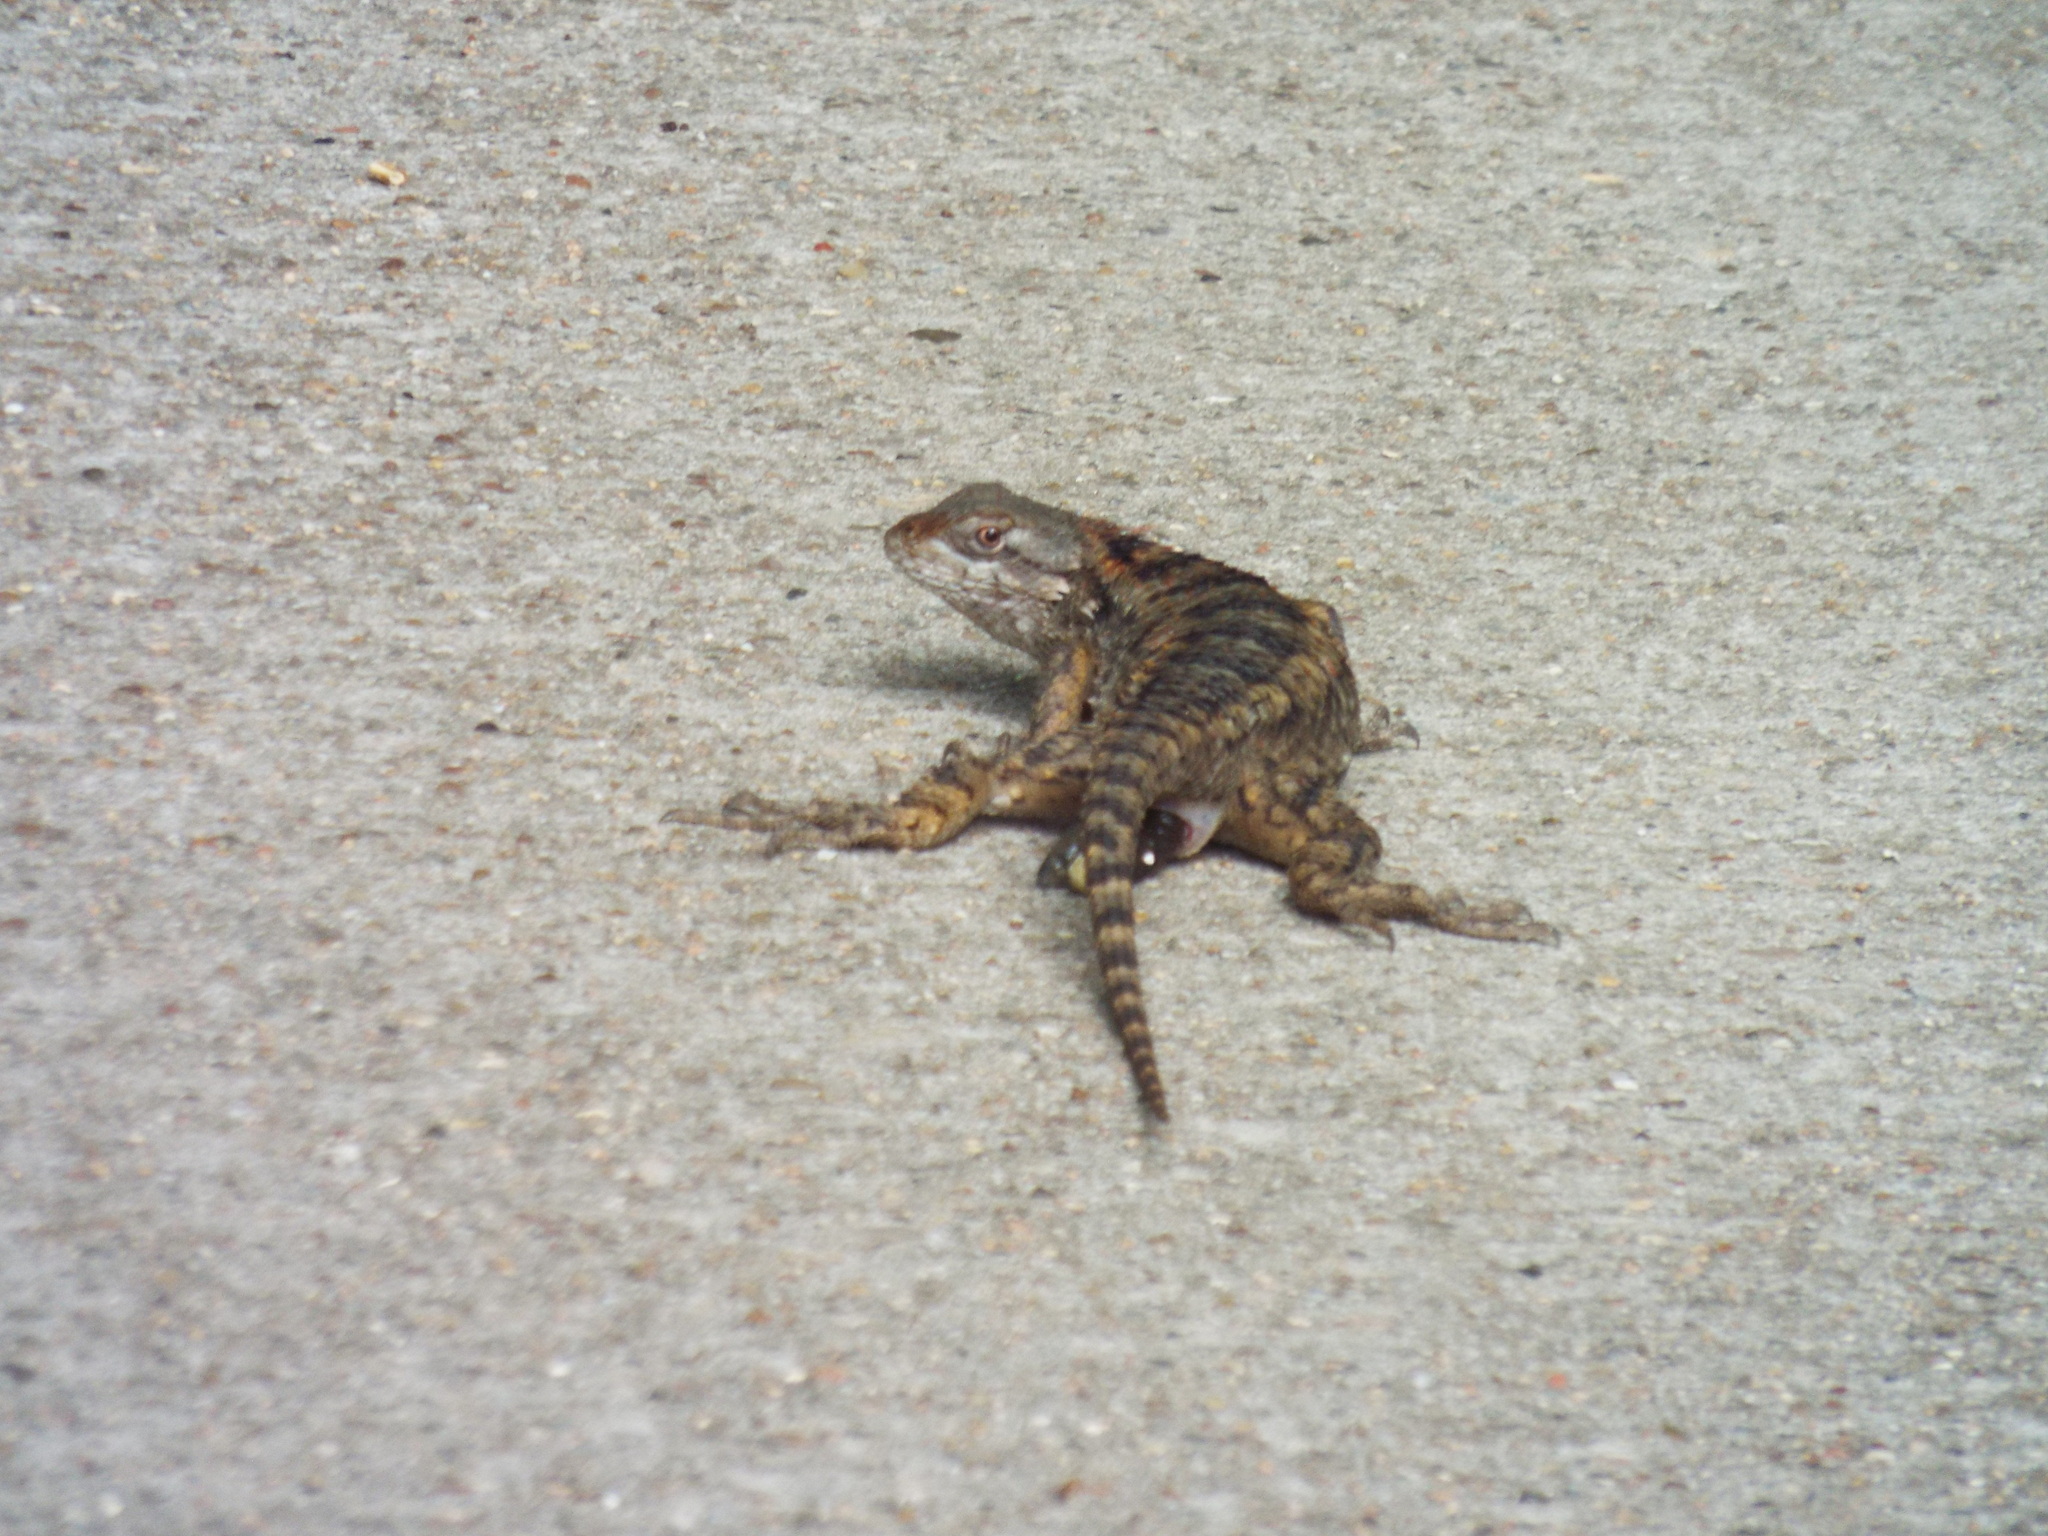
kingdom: Animalia
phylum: Chordata
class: Squamata
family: Phrynosomatidae
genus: Sceloporus
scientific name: Sceloporus olivaceus
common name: Texas spiny lizard
